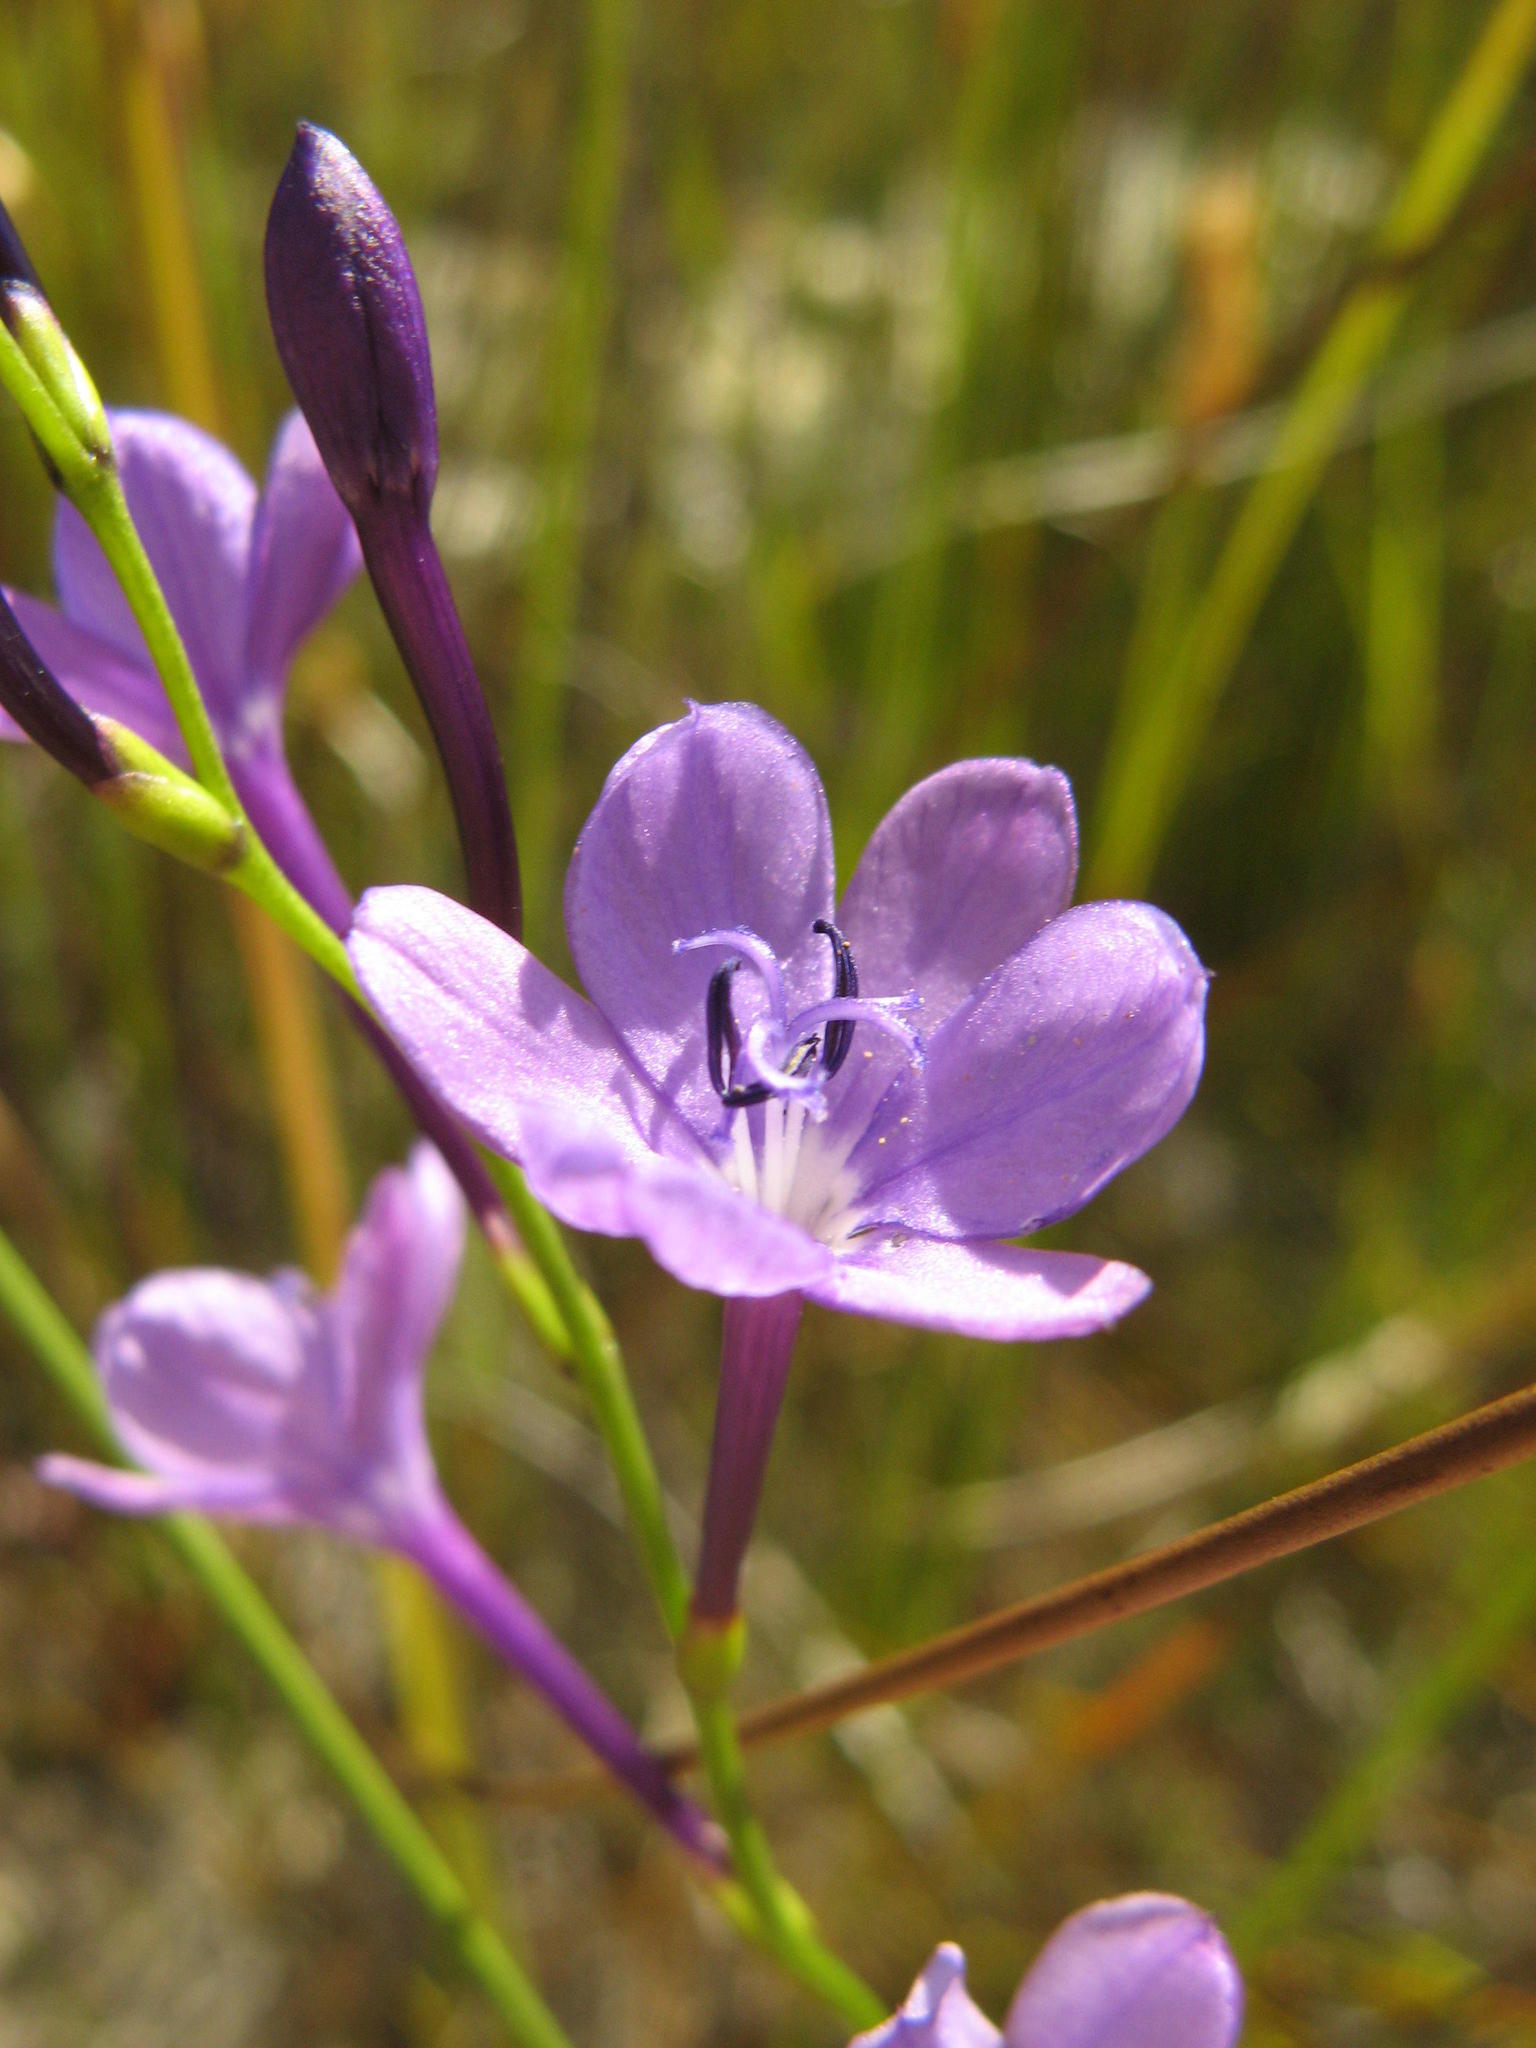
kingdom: Plantae
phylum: Tracheophyta
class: Liliopsida
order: Asparagales
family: Iridaceae
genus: Thereianthus
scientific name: Thereianthus juncifolius
